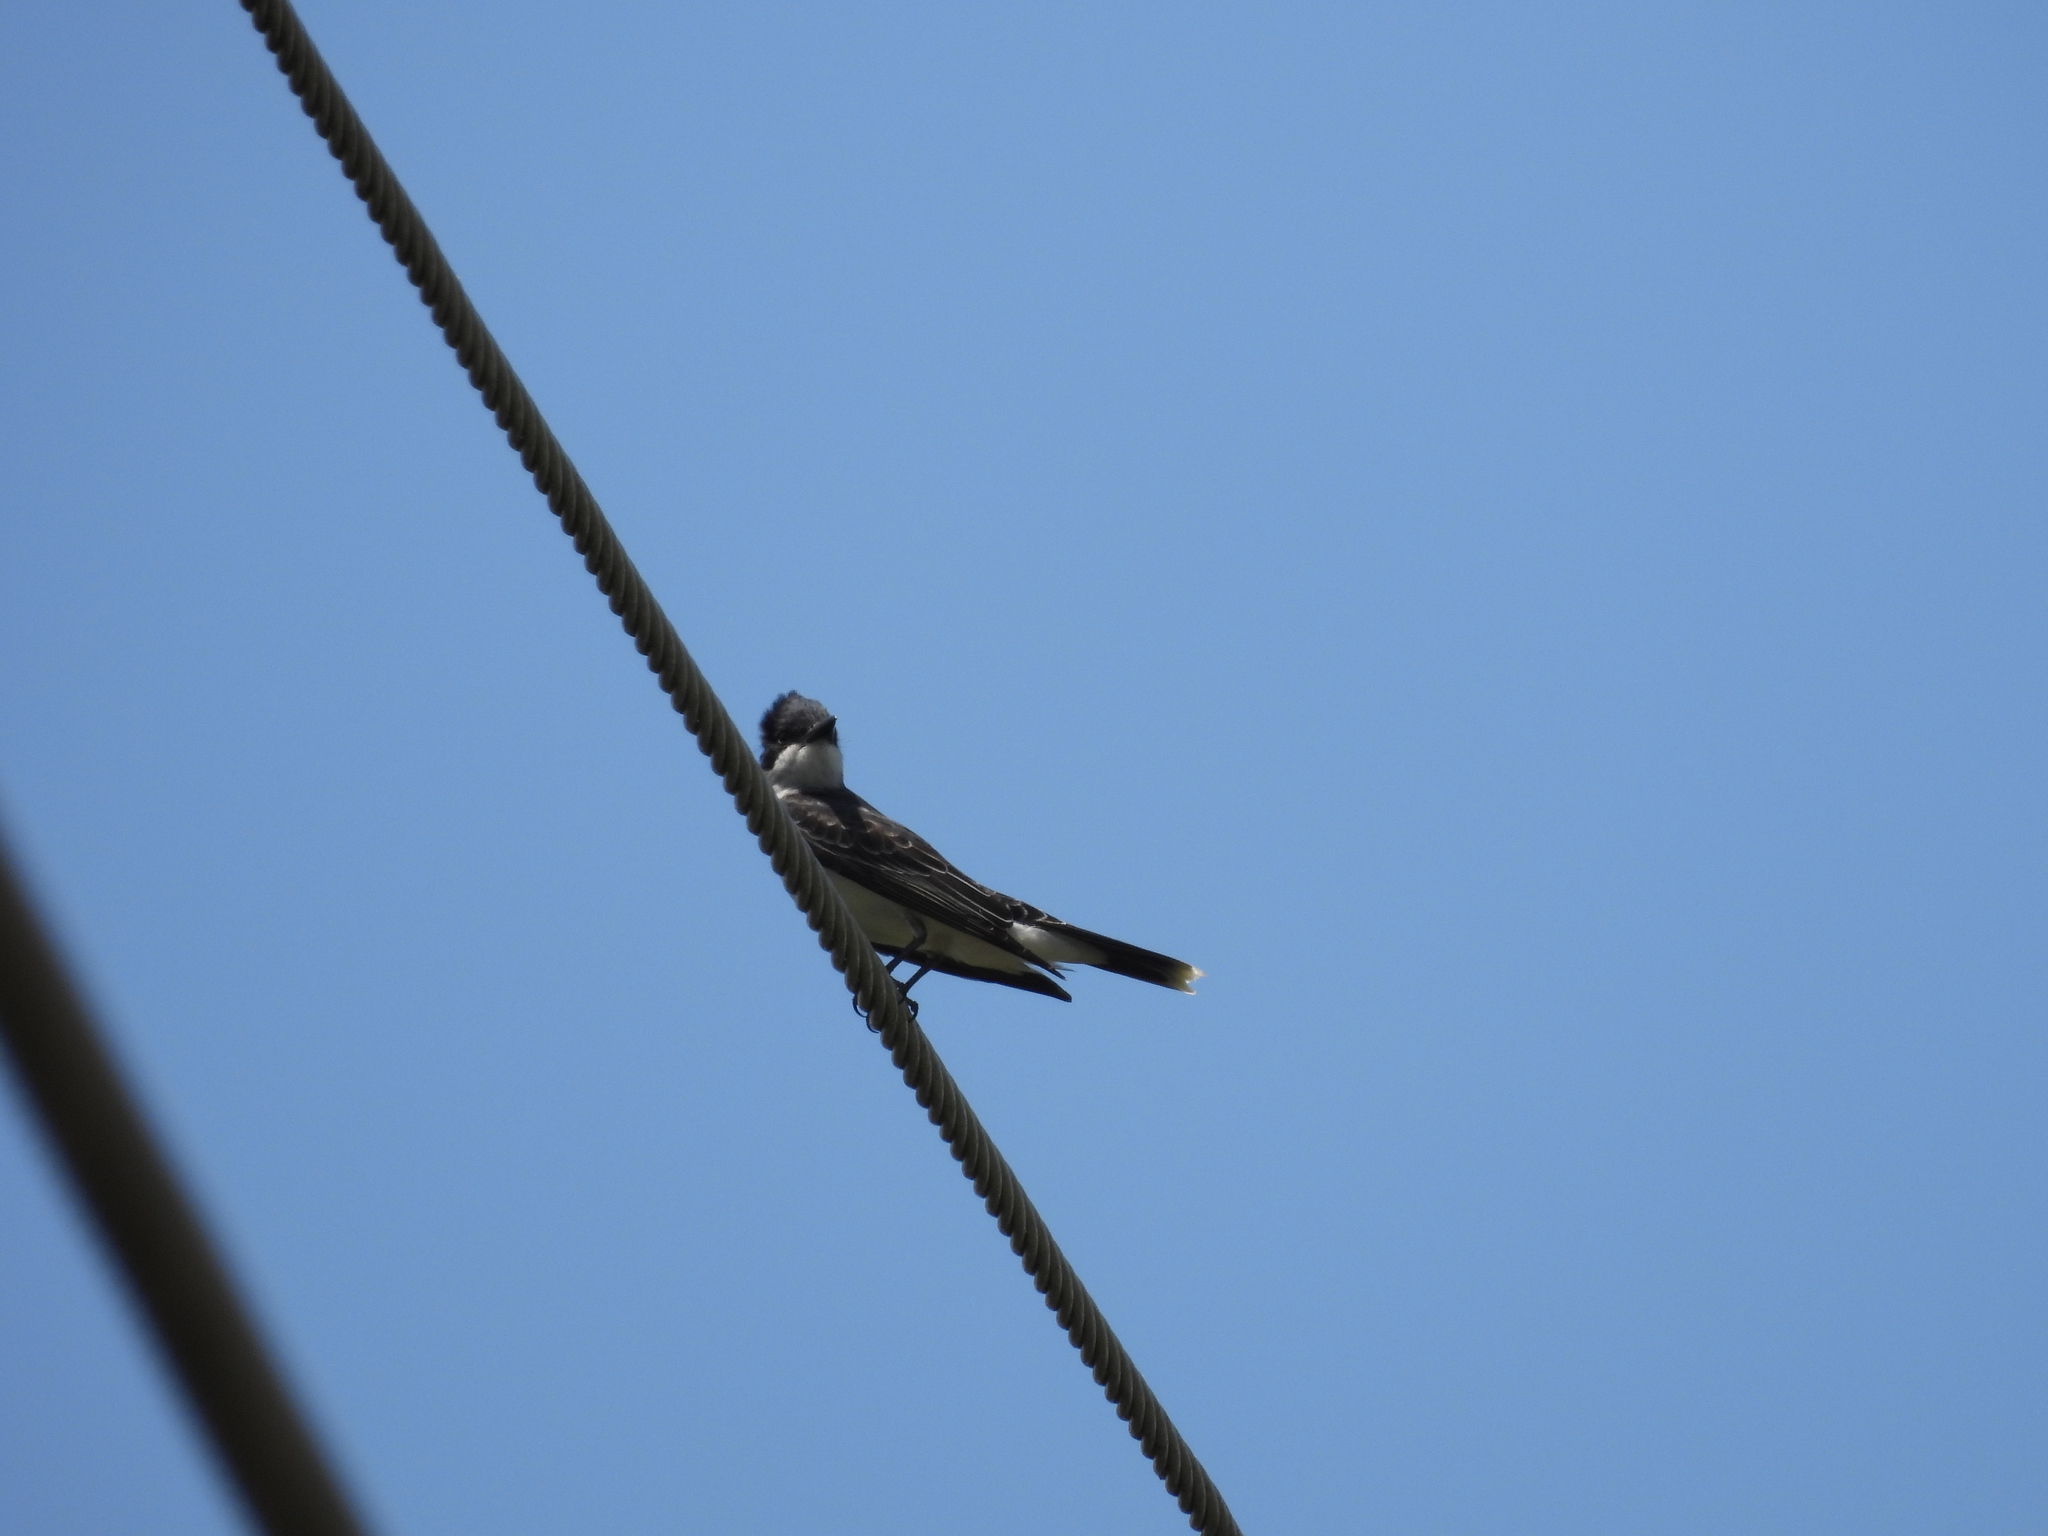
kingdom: Animalia
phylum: Chordata
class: Aves
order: Passeriformes
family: Tyrannidae
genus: Tyrannus
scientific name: Tyrannus tyrannus
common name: Eastern kingbird
